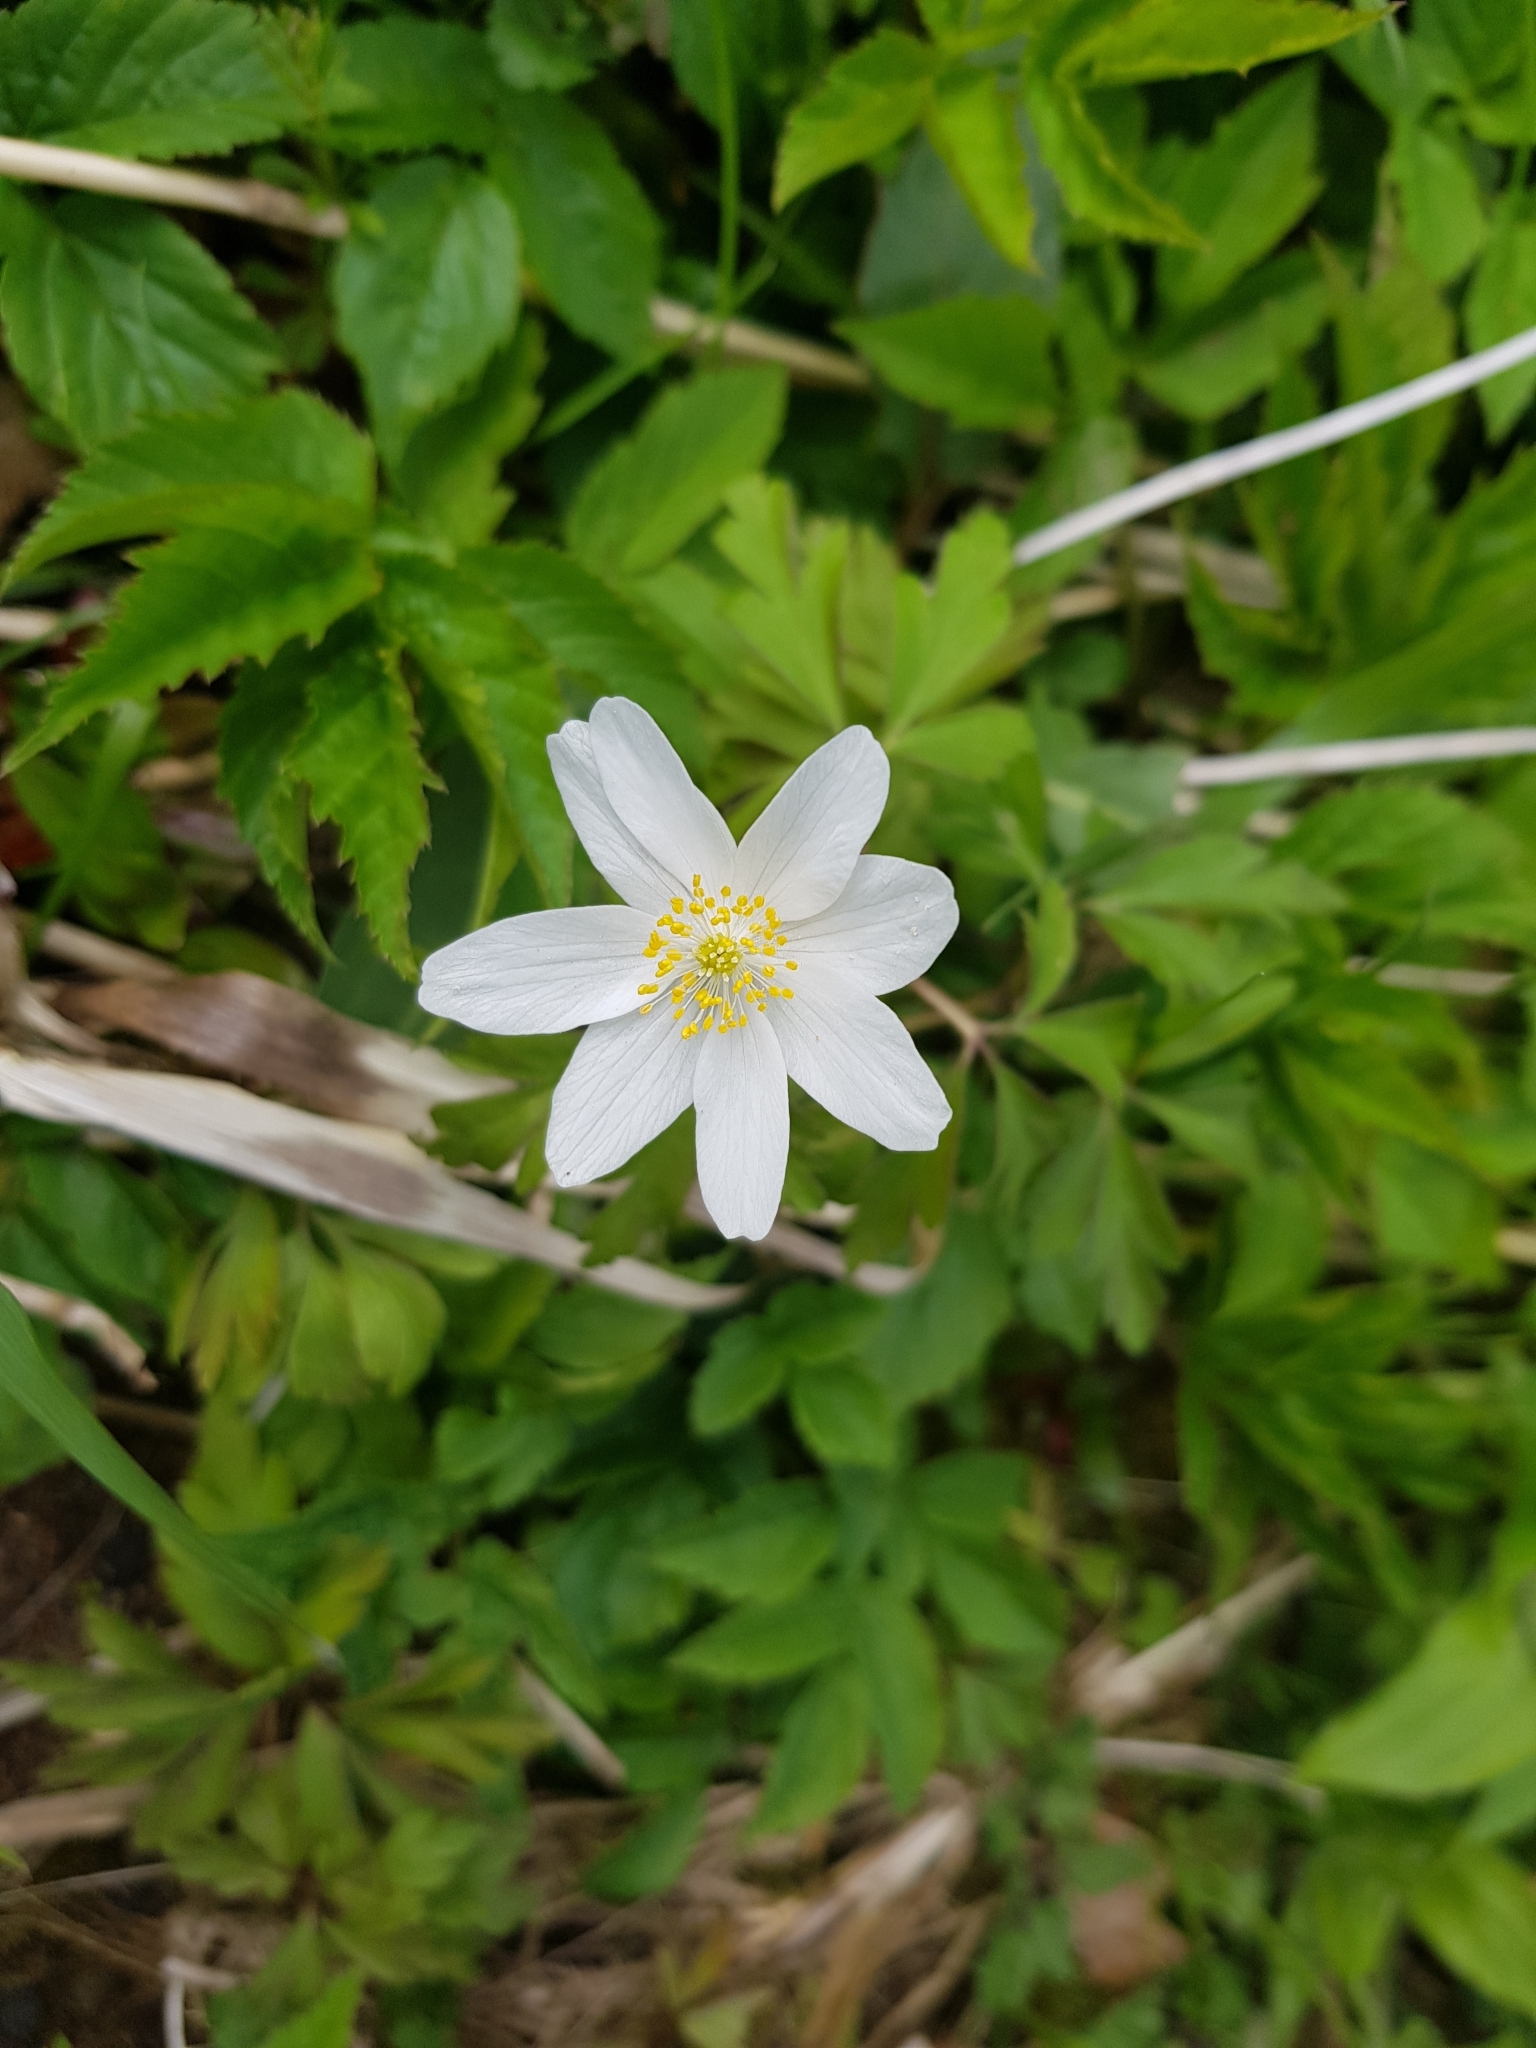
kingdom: Plantae
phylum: Tracheophyta
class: Magnoliopsida
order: Ranunculales
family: Ranunculaceae
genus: Anemone
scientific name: Anemone nemorosa
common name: Wood anemone
